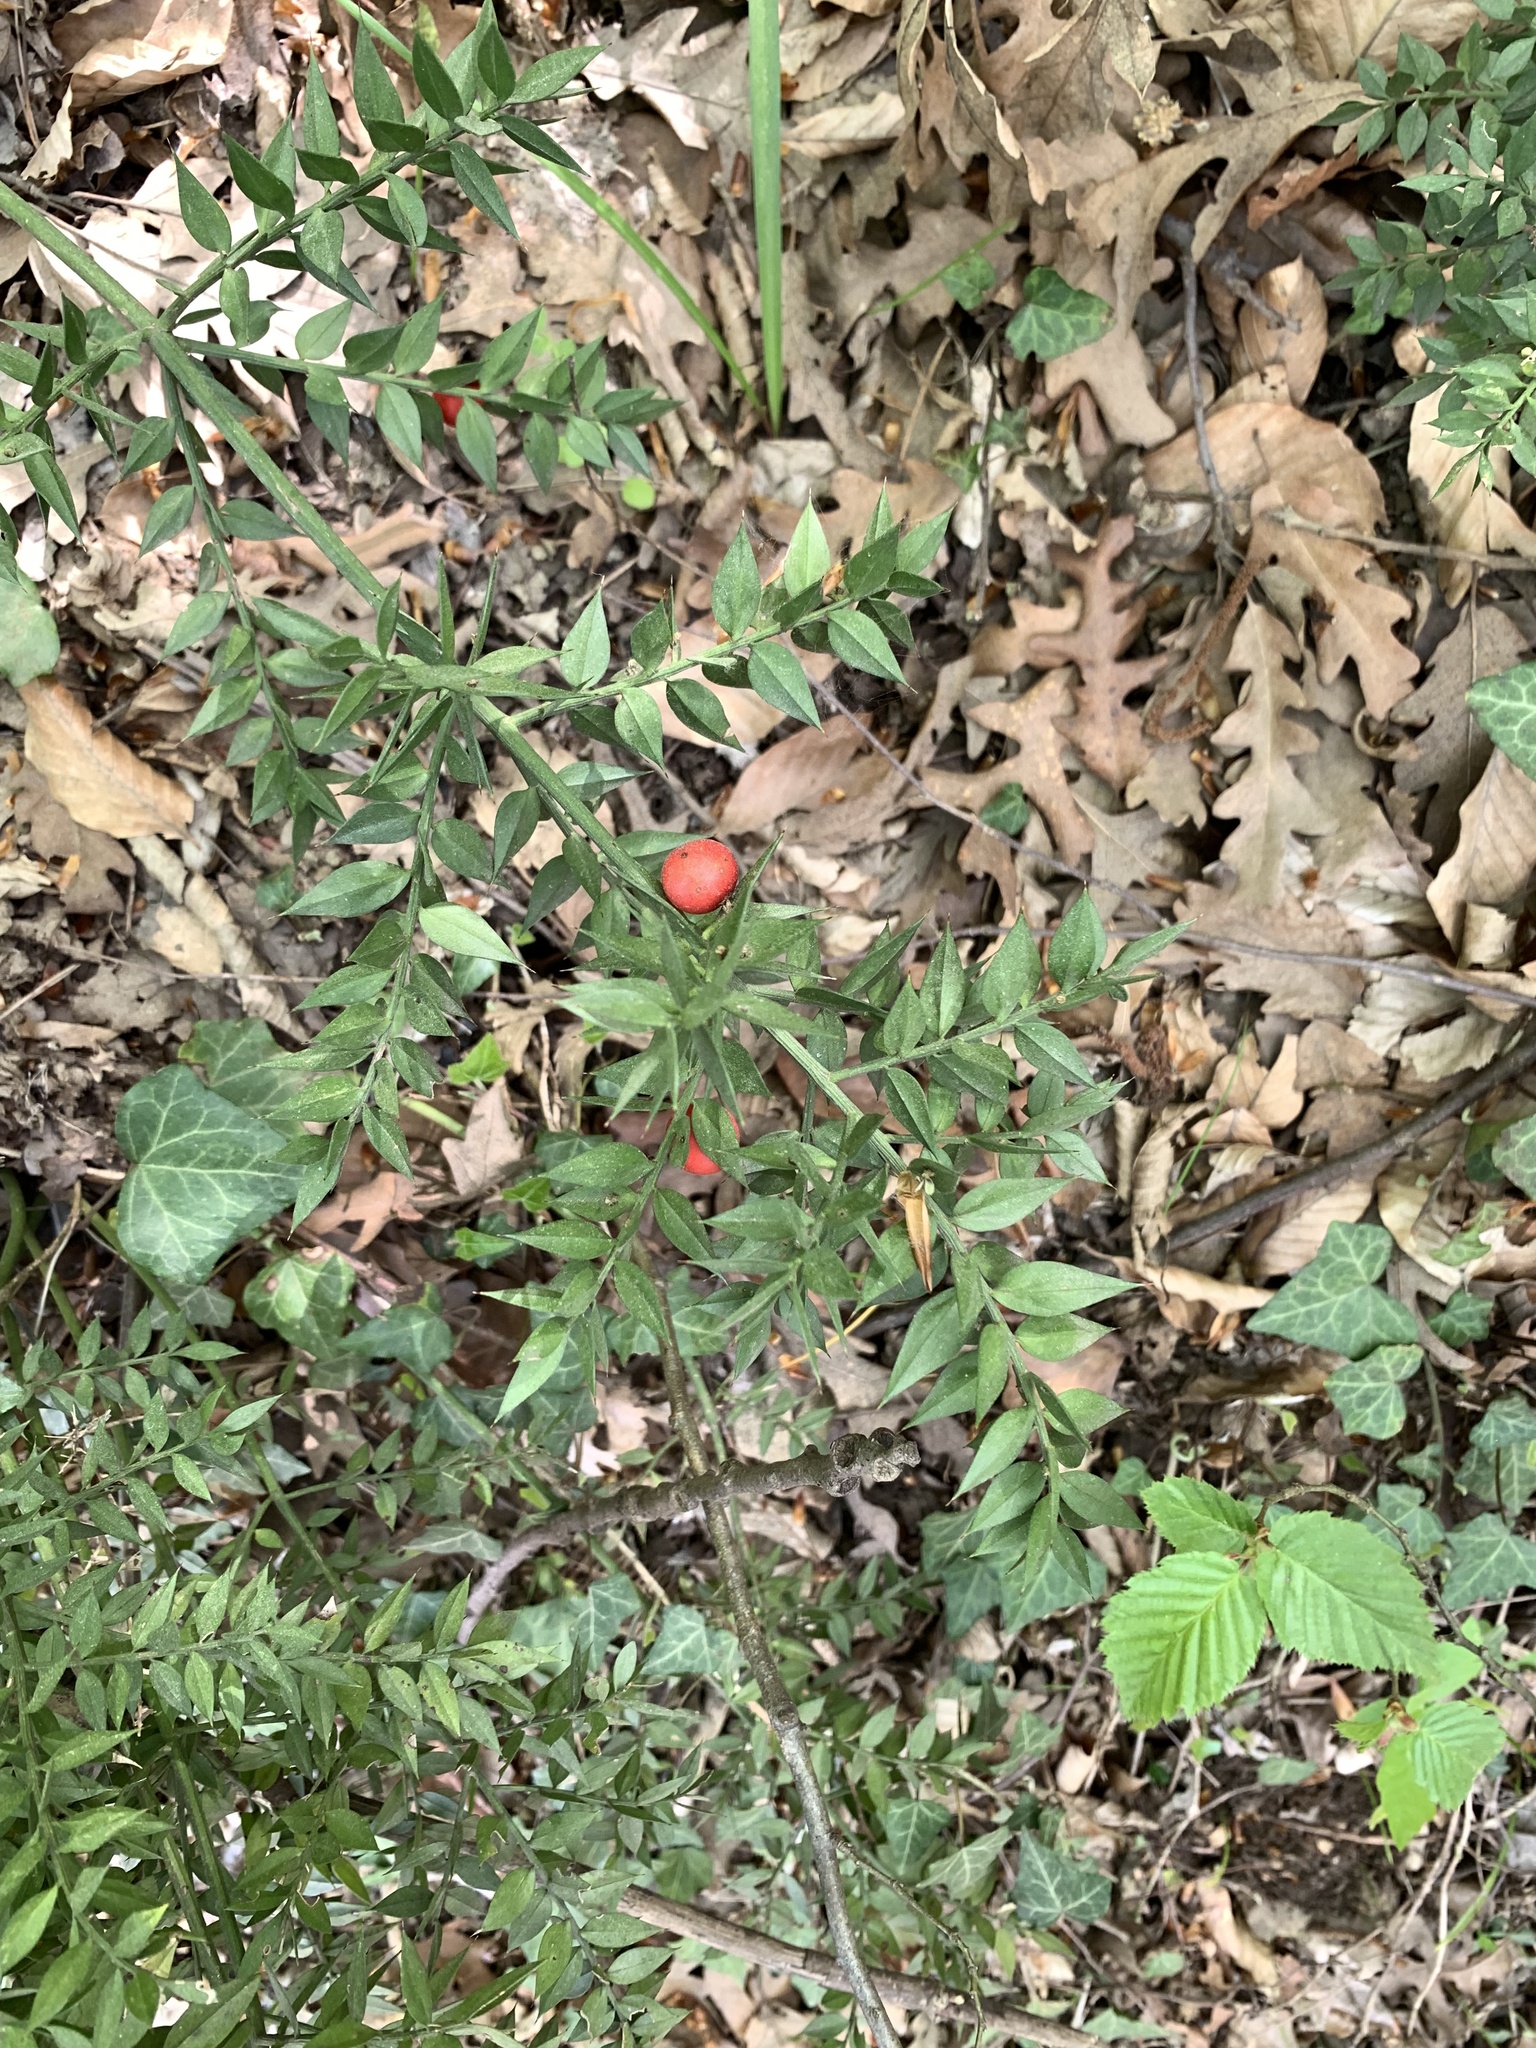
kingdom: Plantae
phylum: Tracheophyta
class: Liliopsida
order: Asparagales
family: Asparagaceae
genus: Ruscus
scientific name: Ruscus aculeatus
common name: Butcher's-broom
